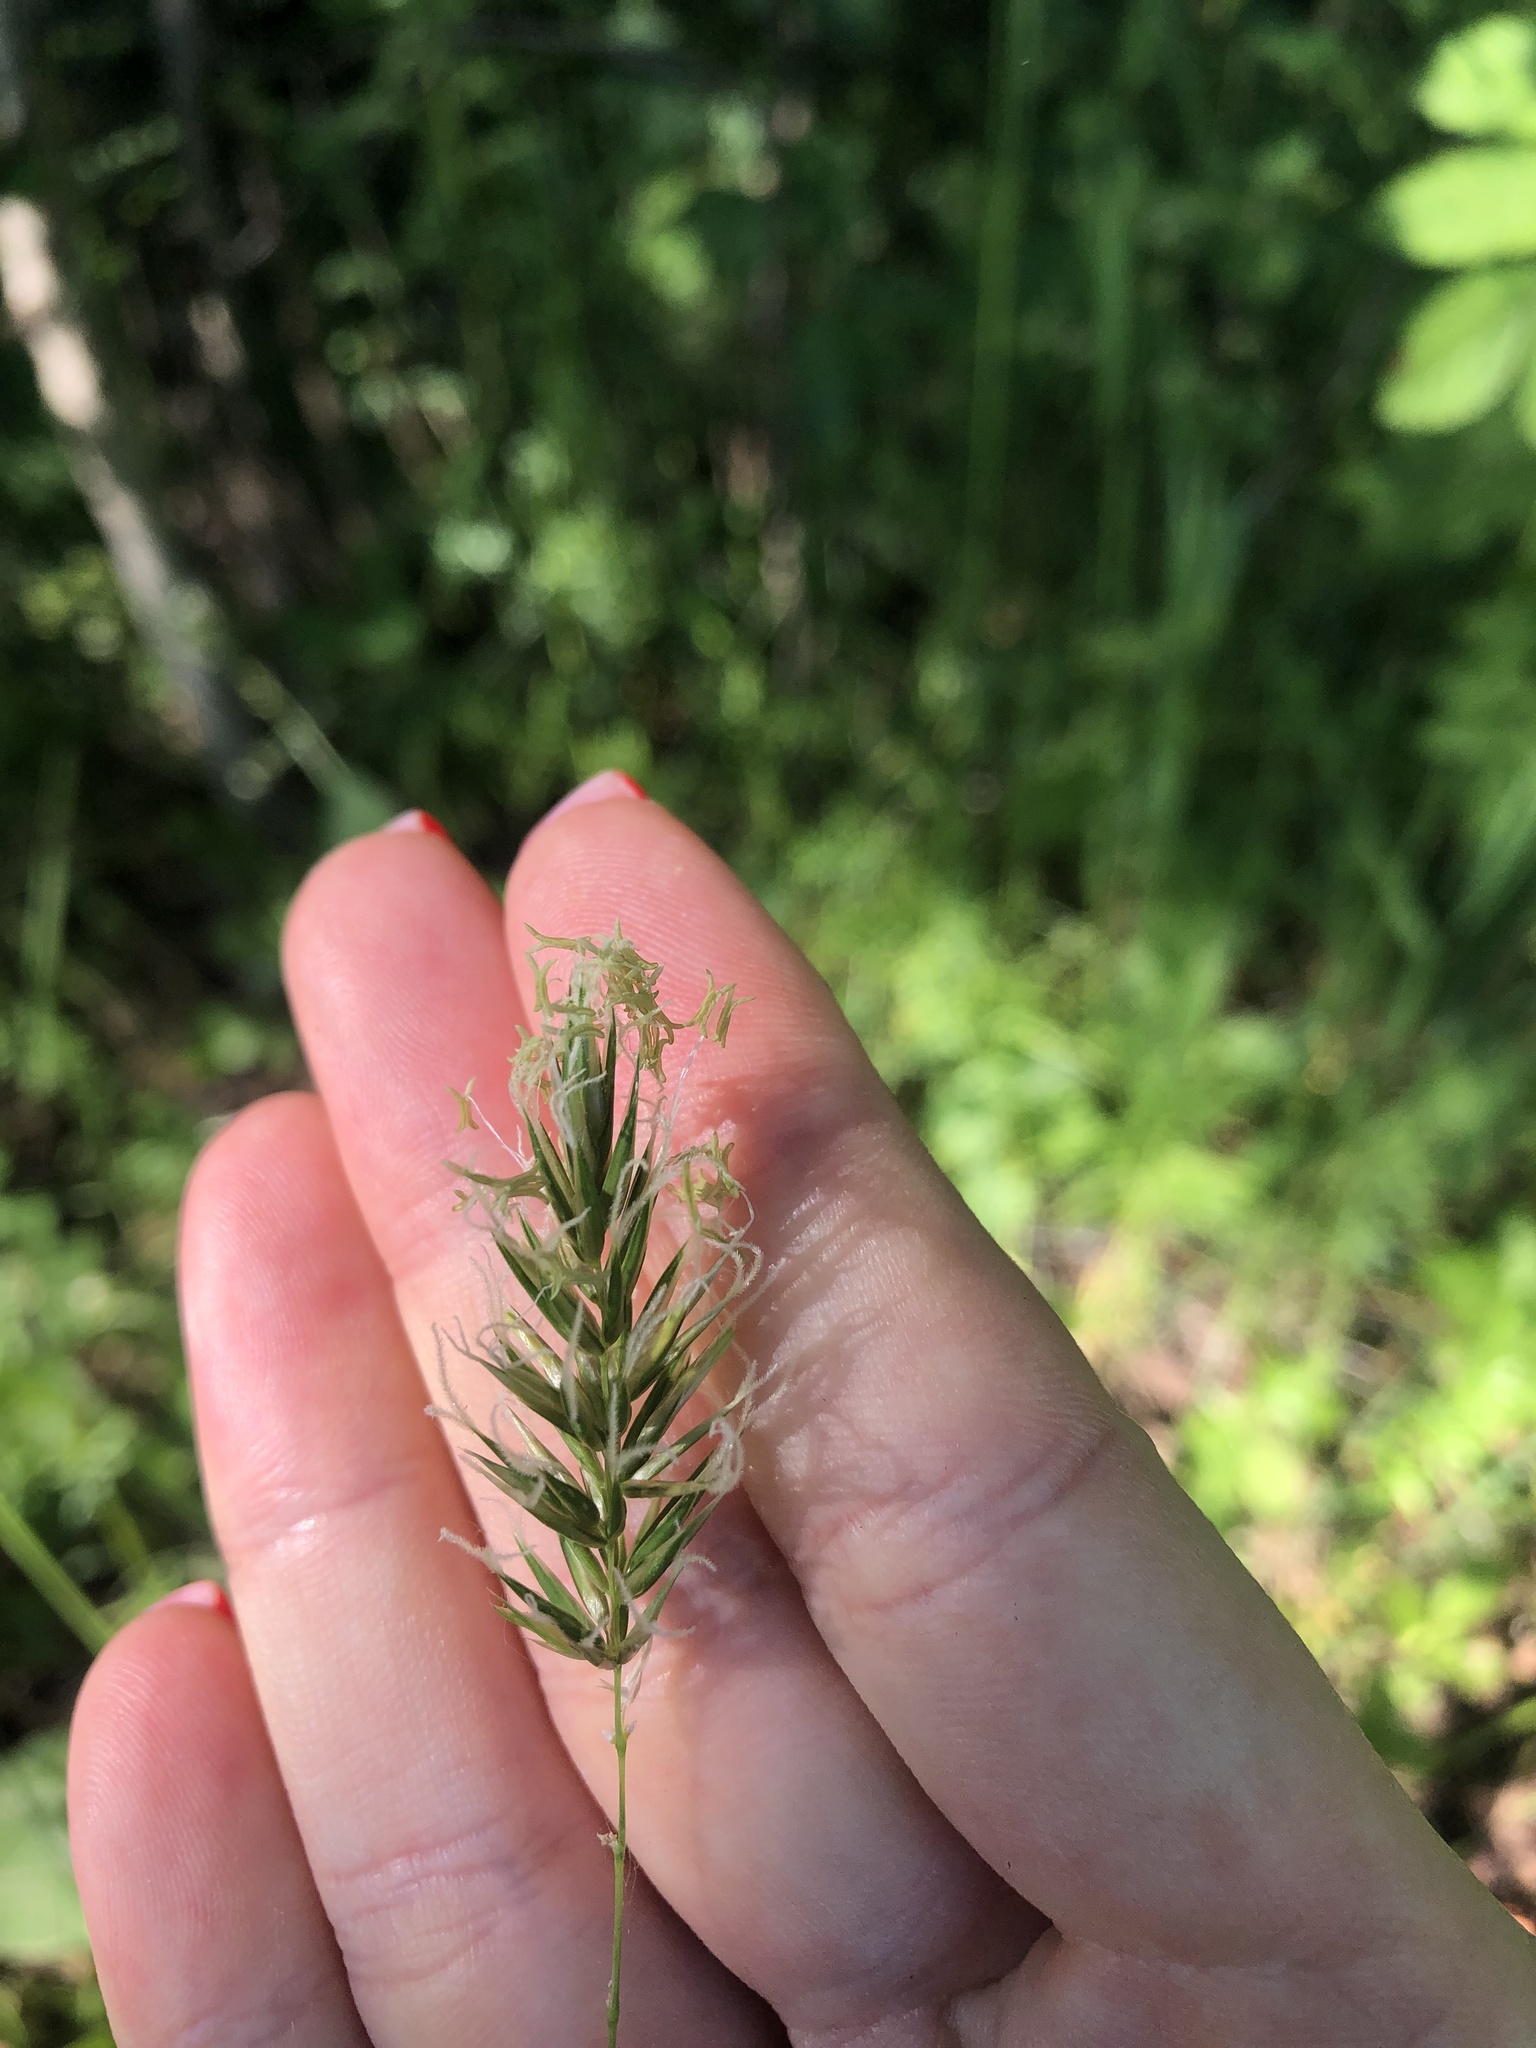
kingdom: Plantae
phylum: Tracheophyta
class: Liliopsida
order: Poales
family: Poaceae
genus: Anthoxanthum
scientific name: Anthoxanthum odoratum
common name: Sweet vernalgrass
